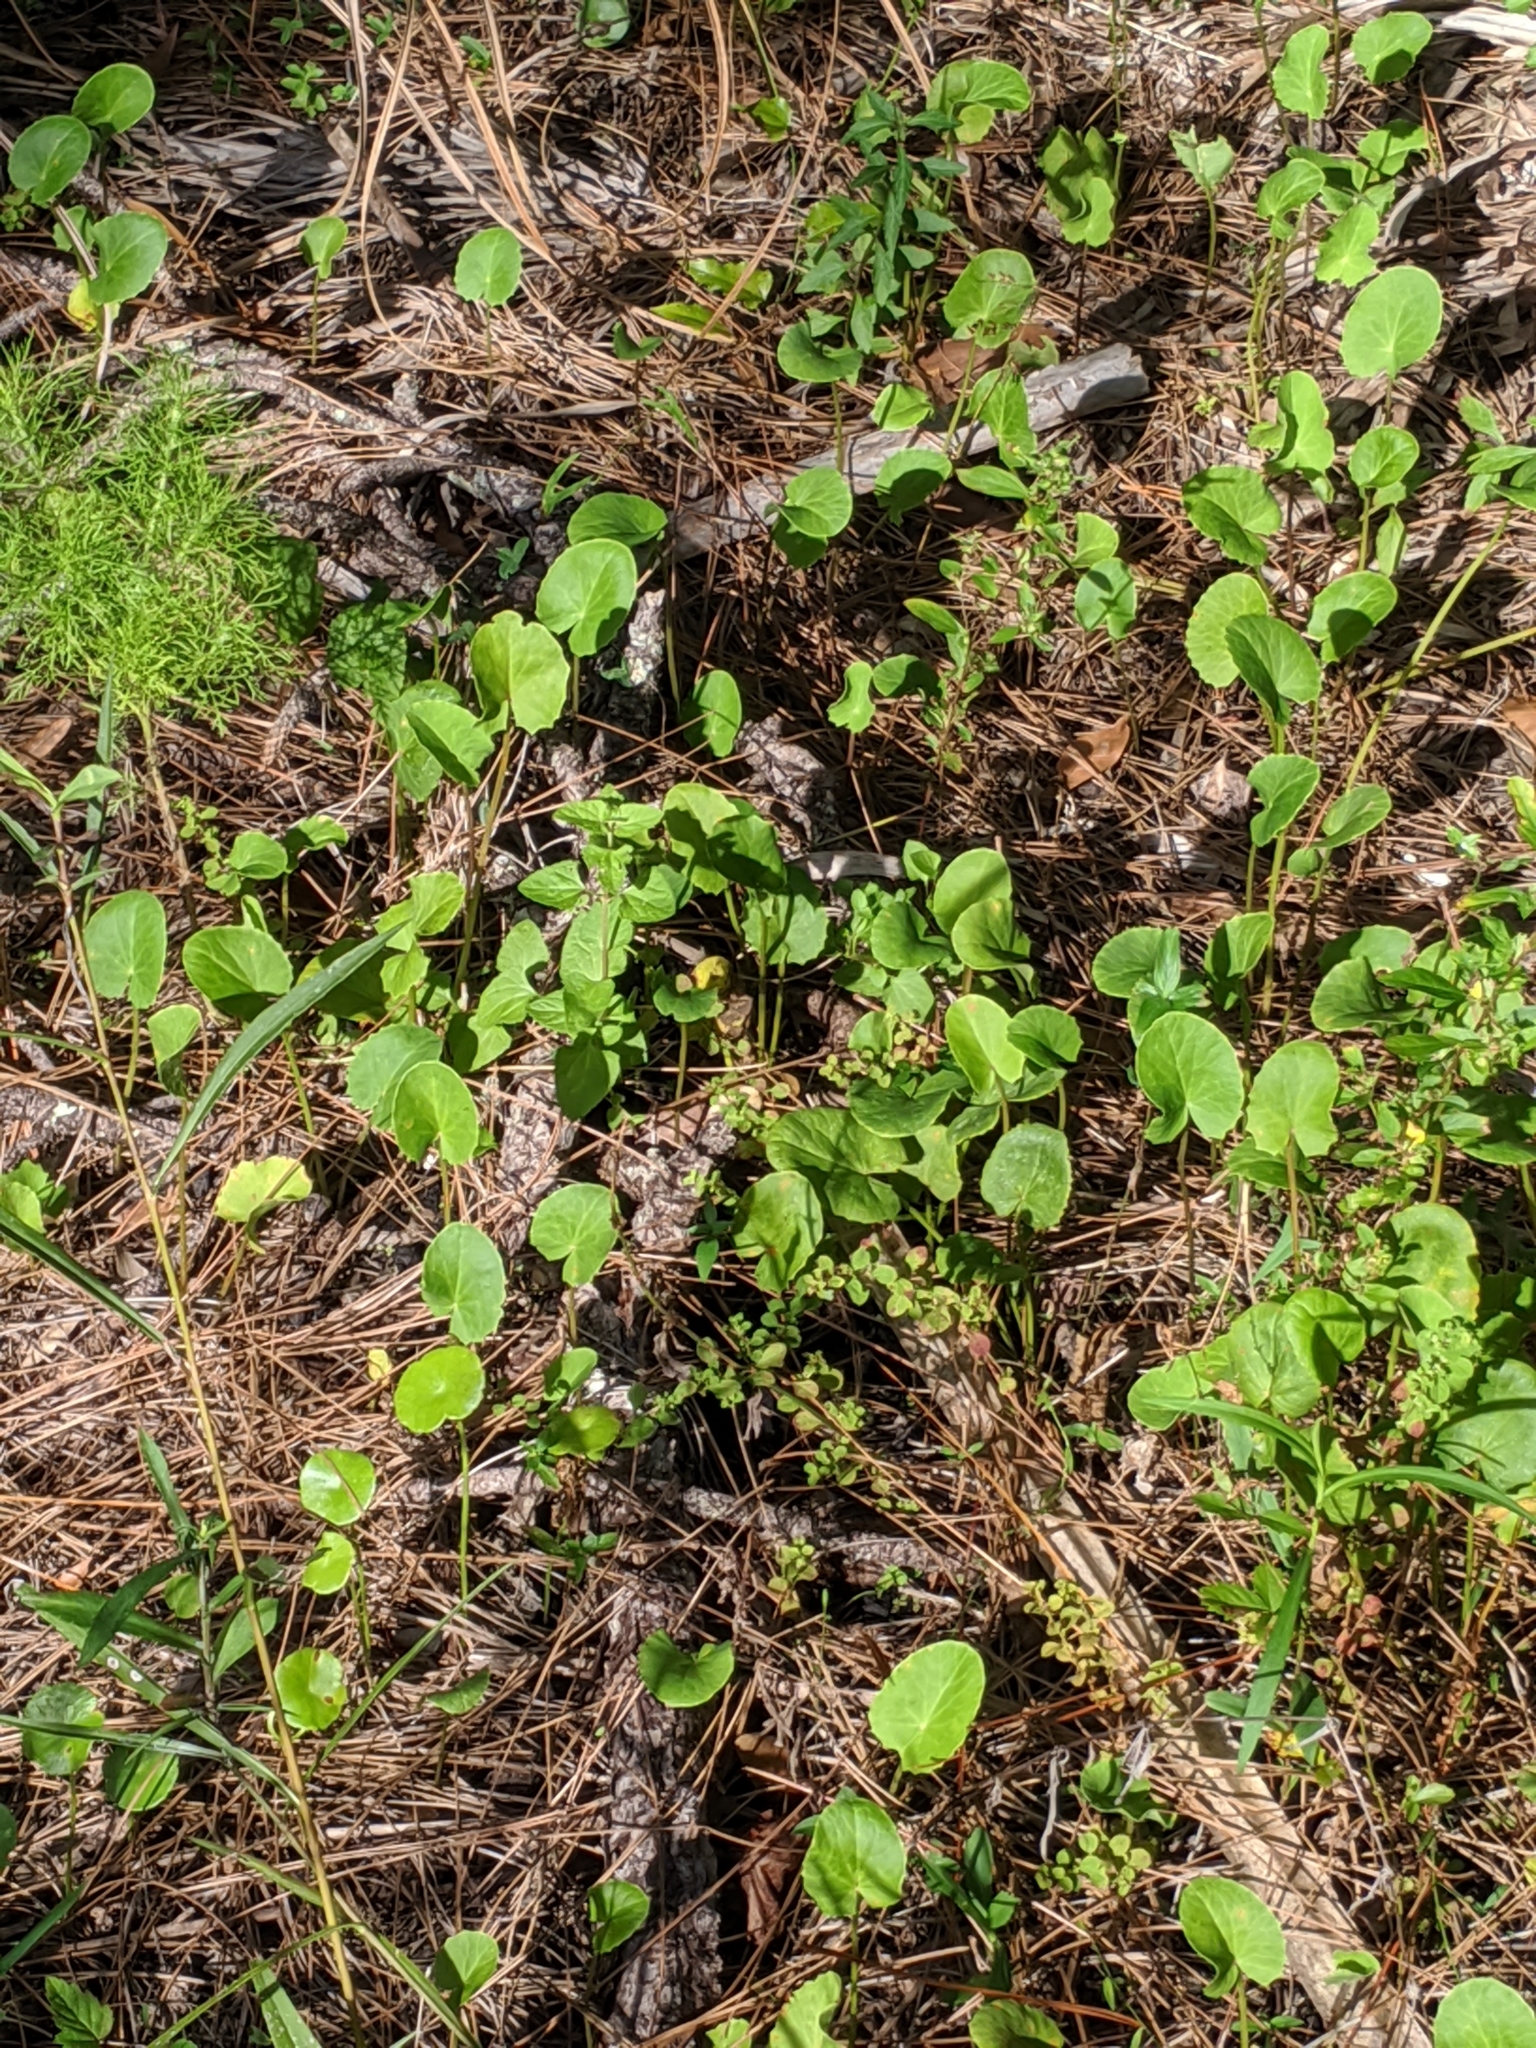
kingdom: Plantae
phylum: Tracheophyta
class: Magnoliopsida
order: Apiales
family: Apiaceae
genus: Centella
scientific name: Centella erecta
